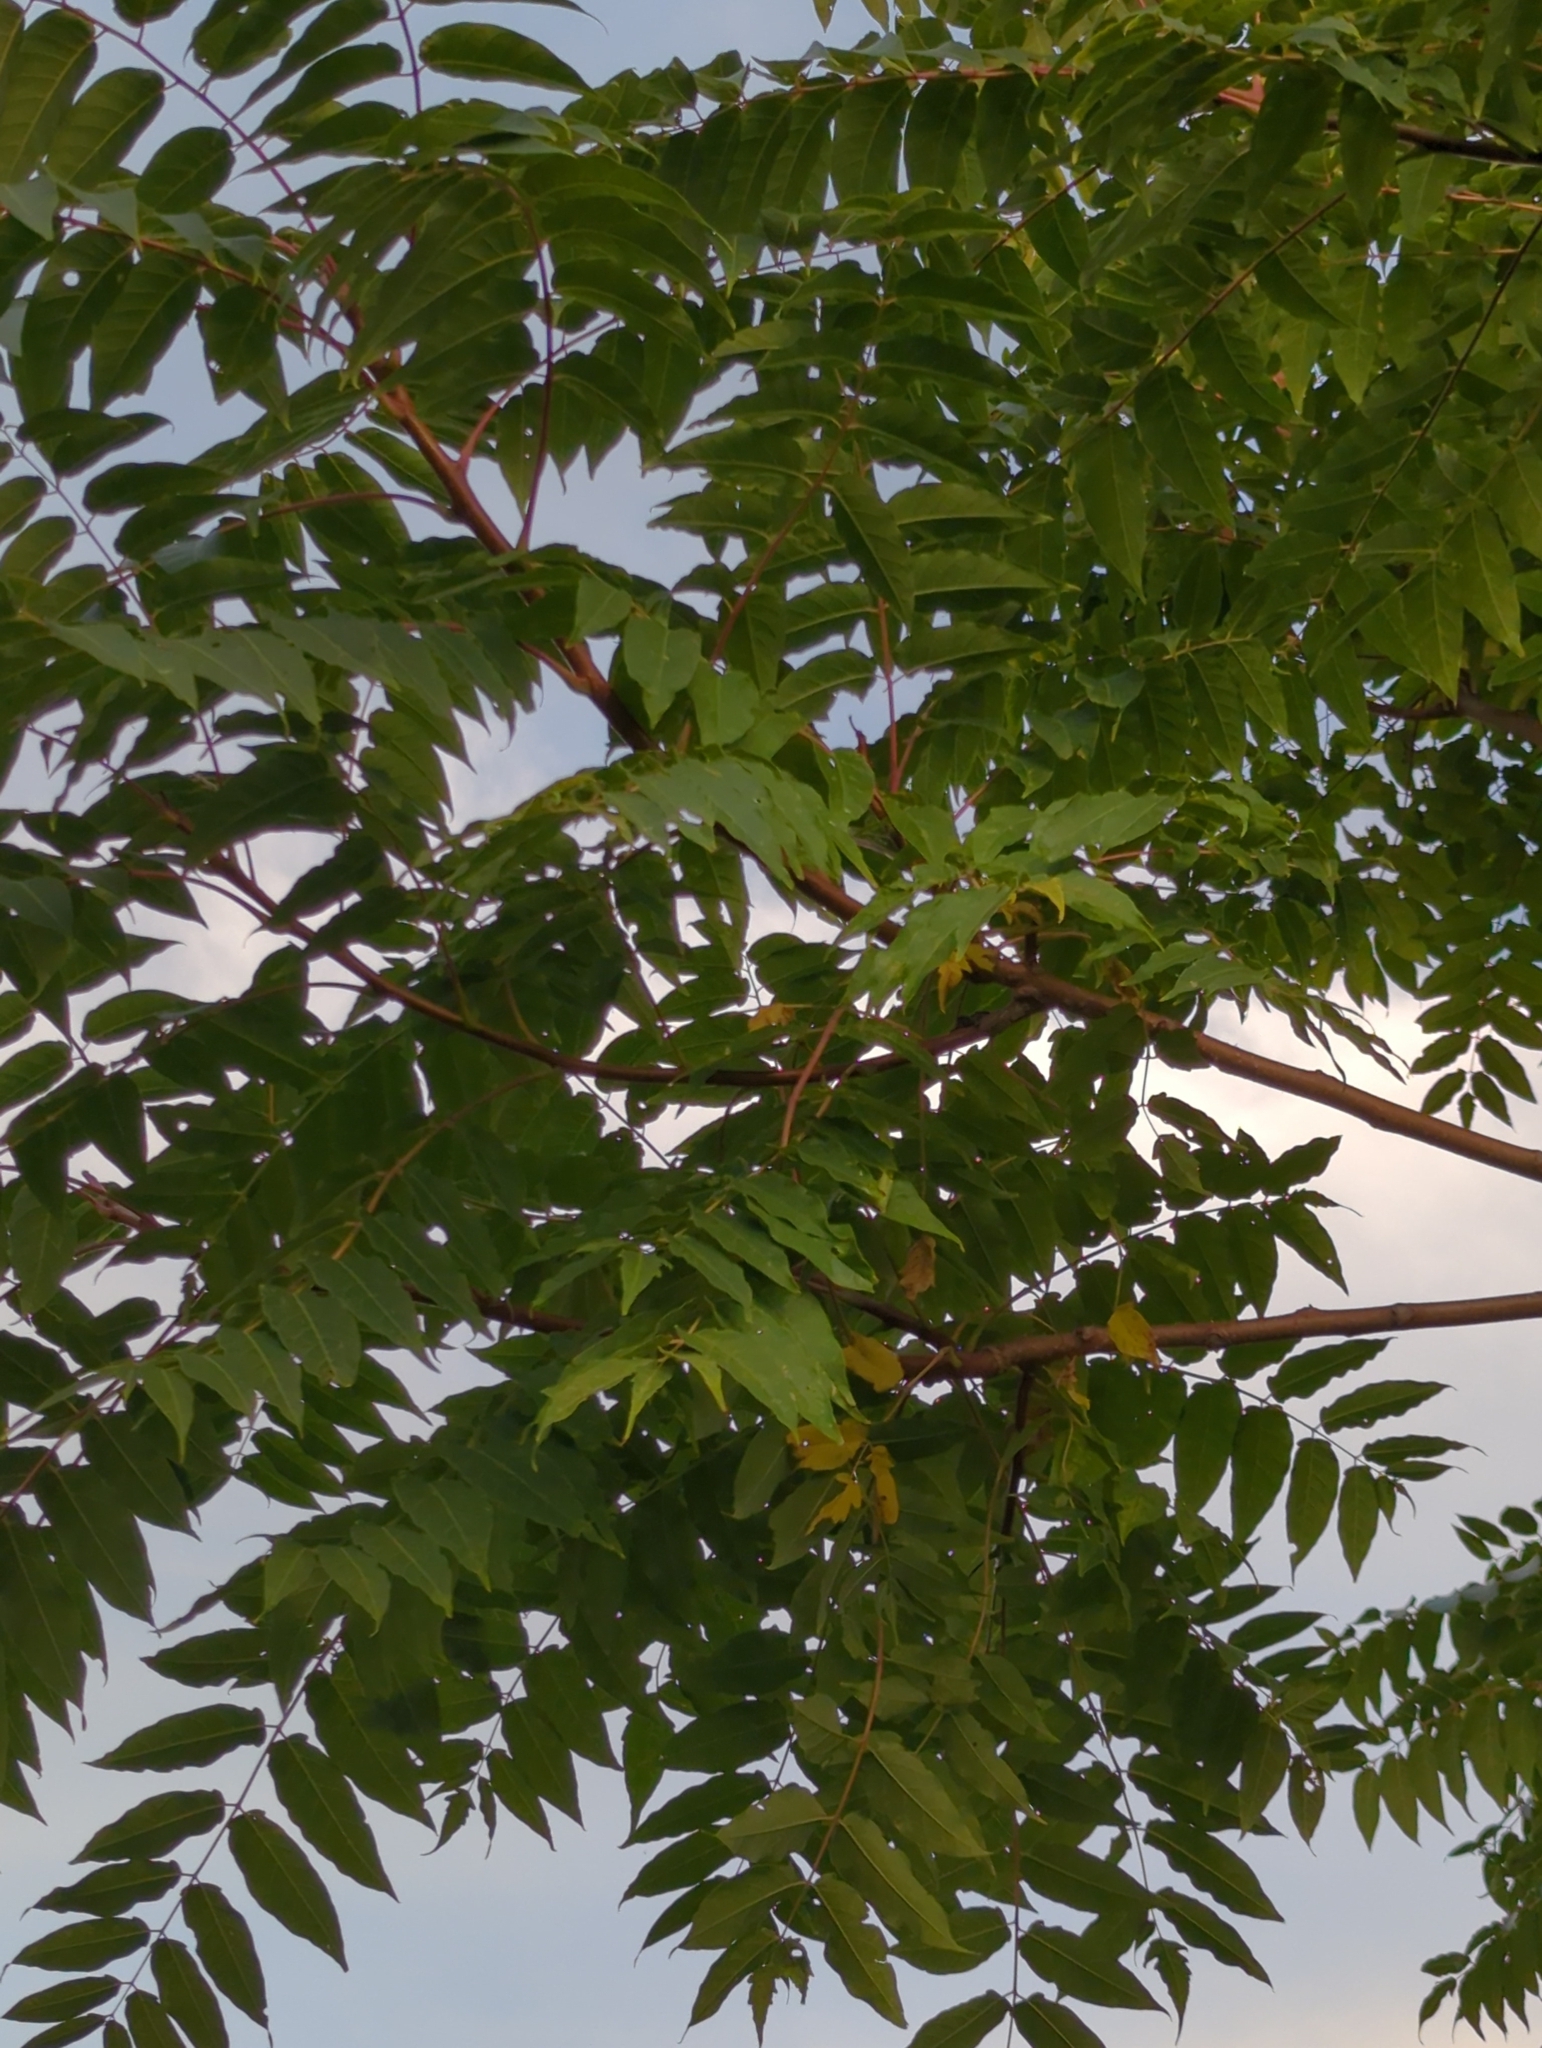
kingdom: Plantae
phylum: Tracheophyta
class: Magnoliopsida
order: Sapindales
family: Simaroubaceae
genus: Ailanthus
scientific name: Ailanthus altissima
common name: Tree-of-heaven
